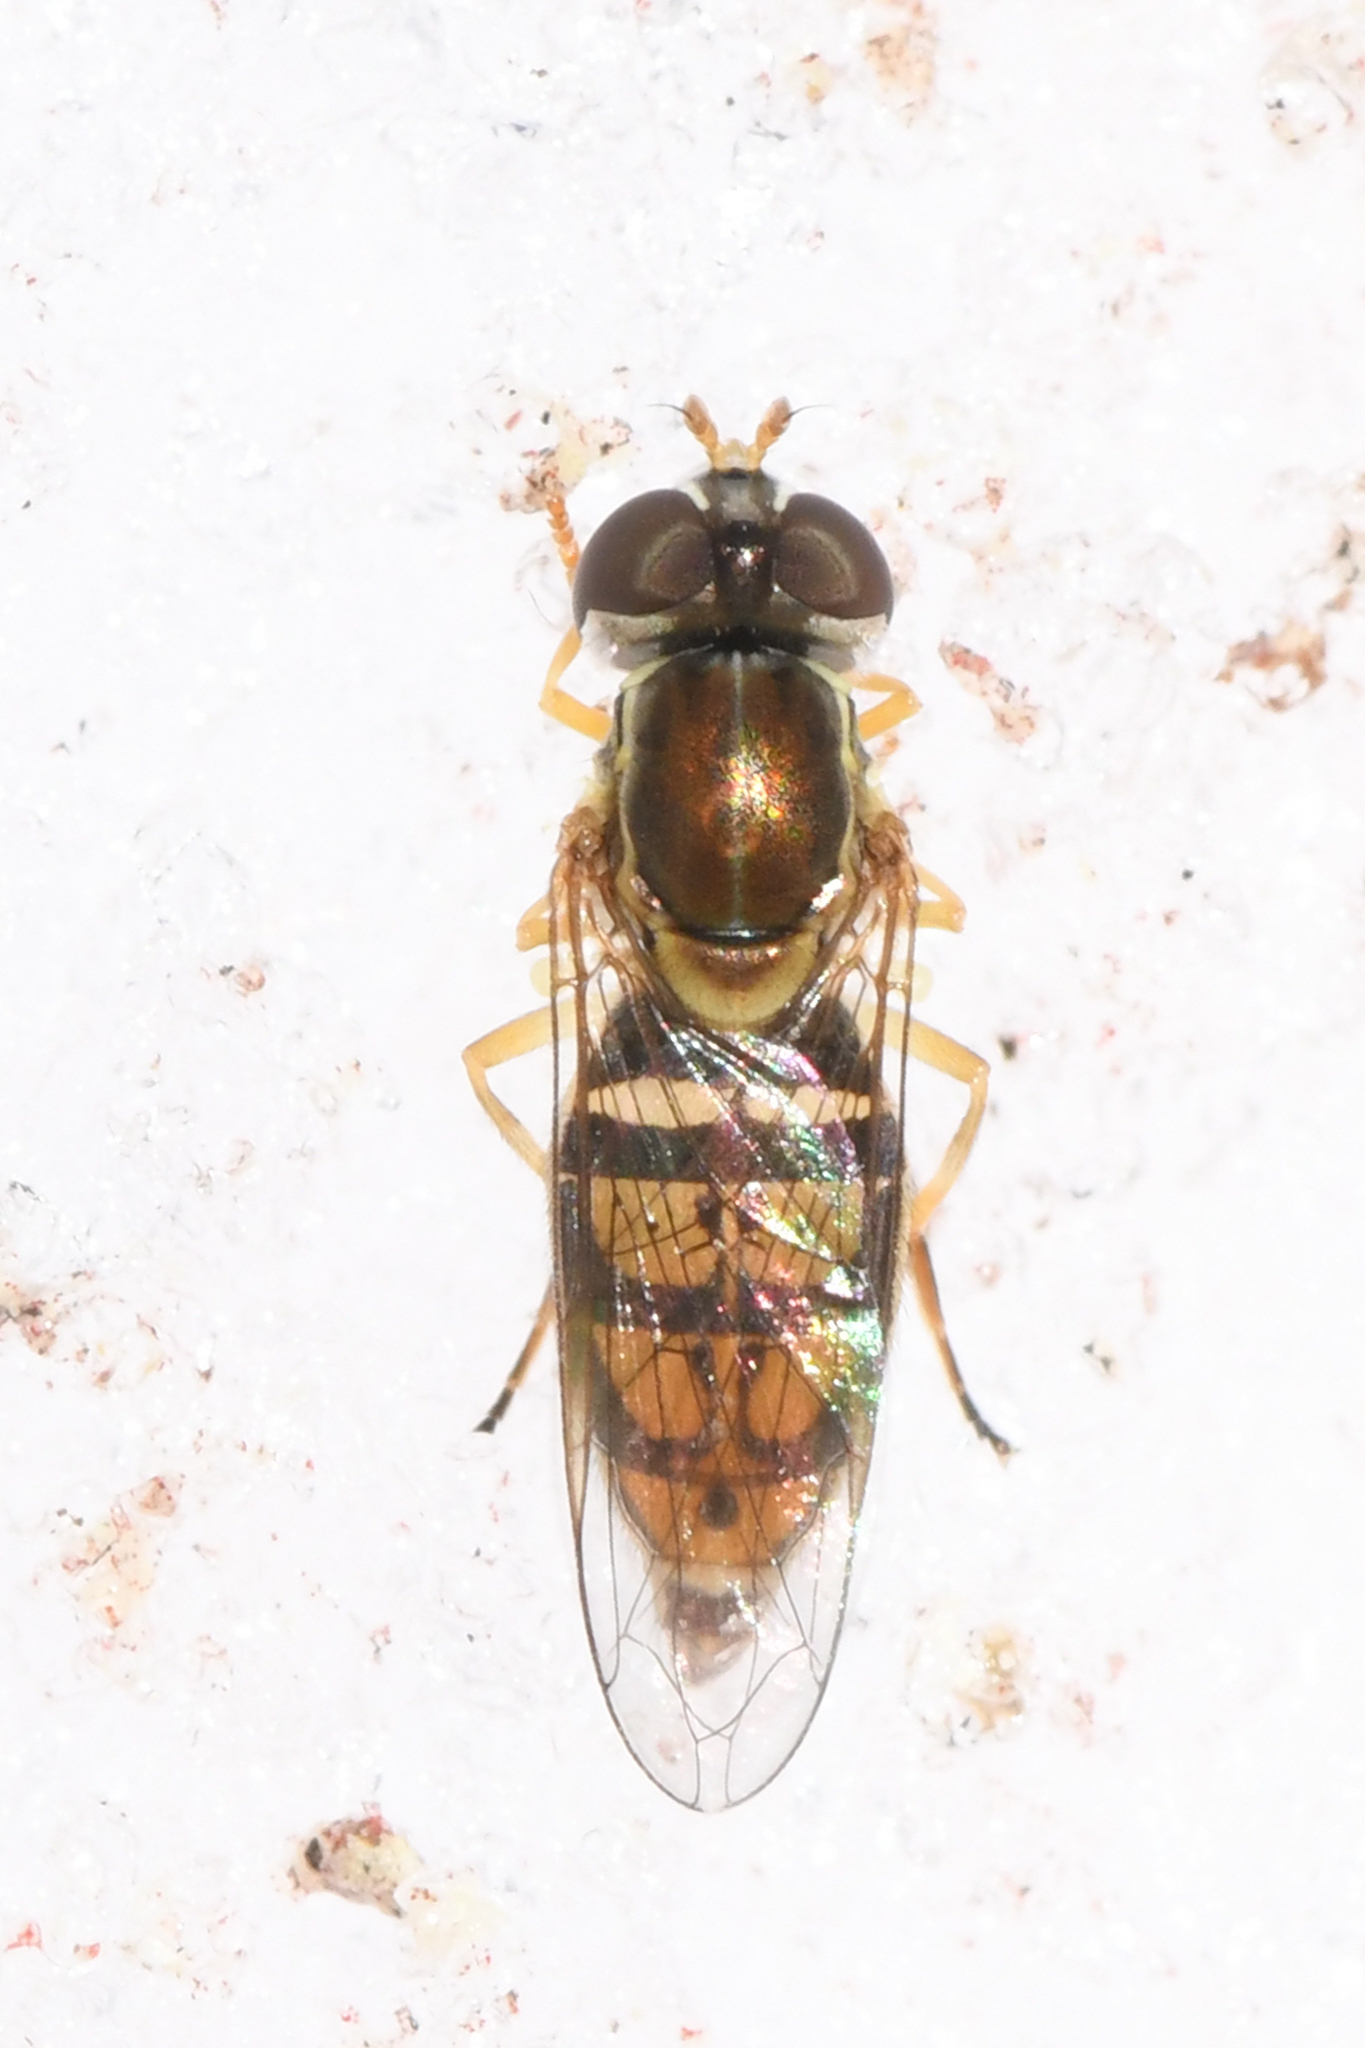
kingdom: Animalia
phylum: Arthropoda
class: Insecta
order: Diptera
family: Syrphidae
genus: Toxomerus
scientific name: Toxomerus marginatus
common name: Syrphid fly
